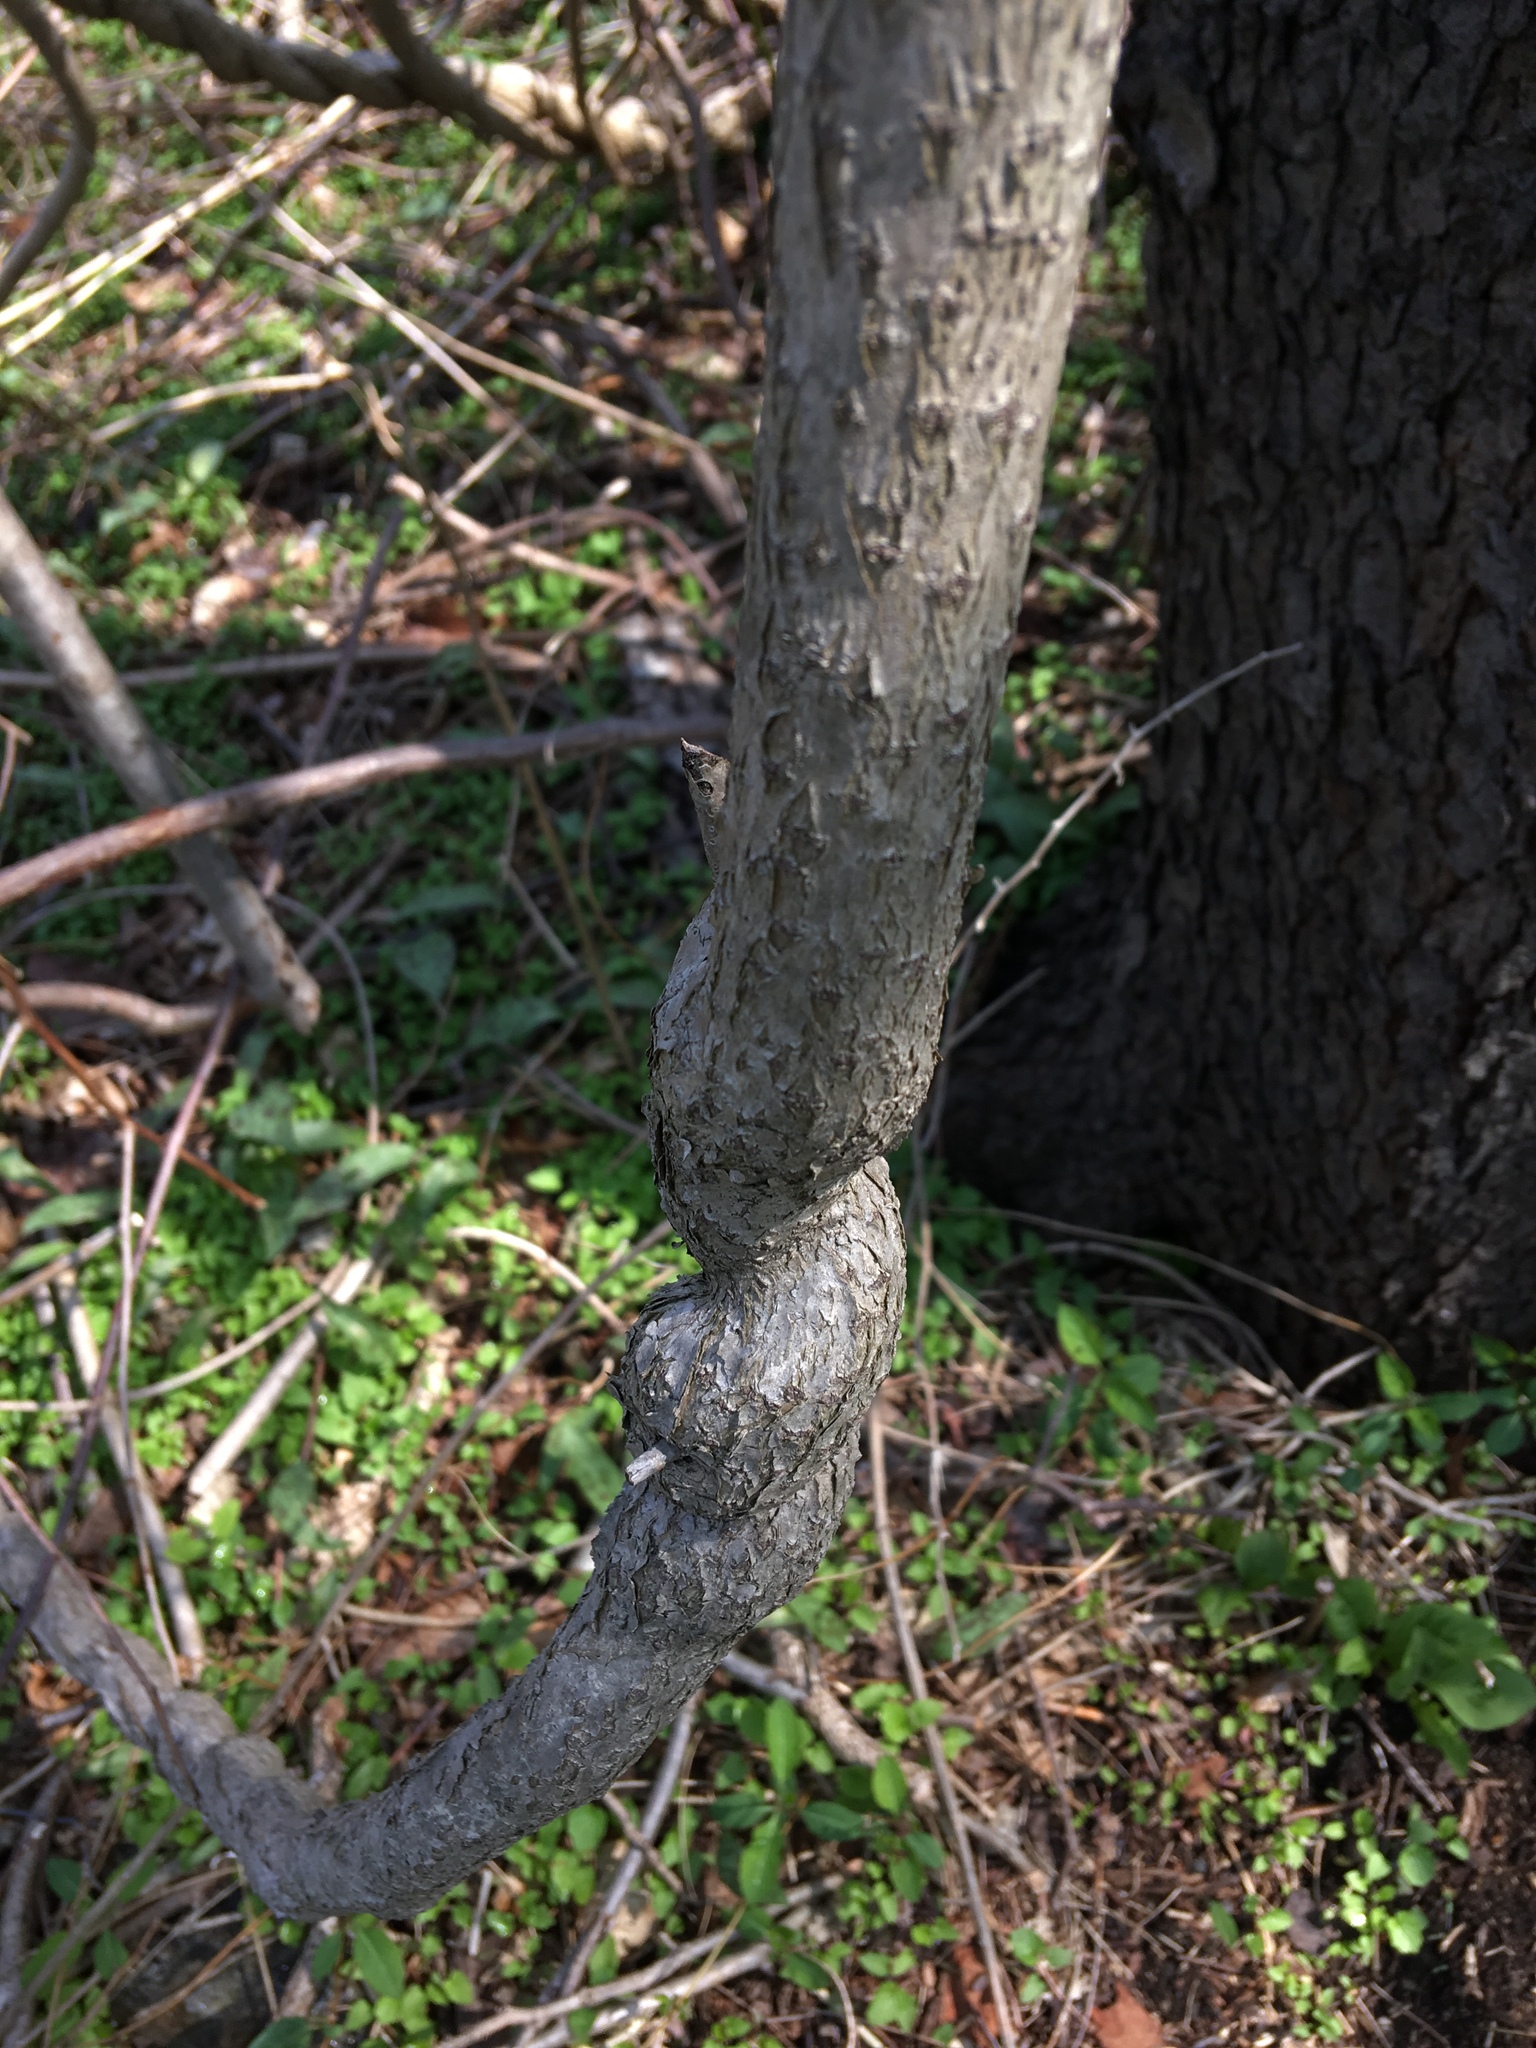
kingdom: Plantae
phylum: Tracheophyta
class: Magnoliopsida
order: Celastrales
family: Celastraceae
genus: Celastrus
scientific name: Celastrus orbiculatus
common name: Oriental bittersweet
